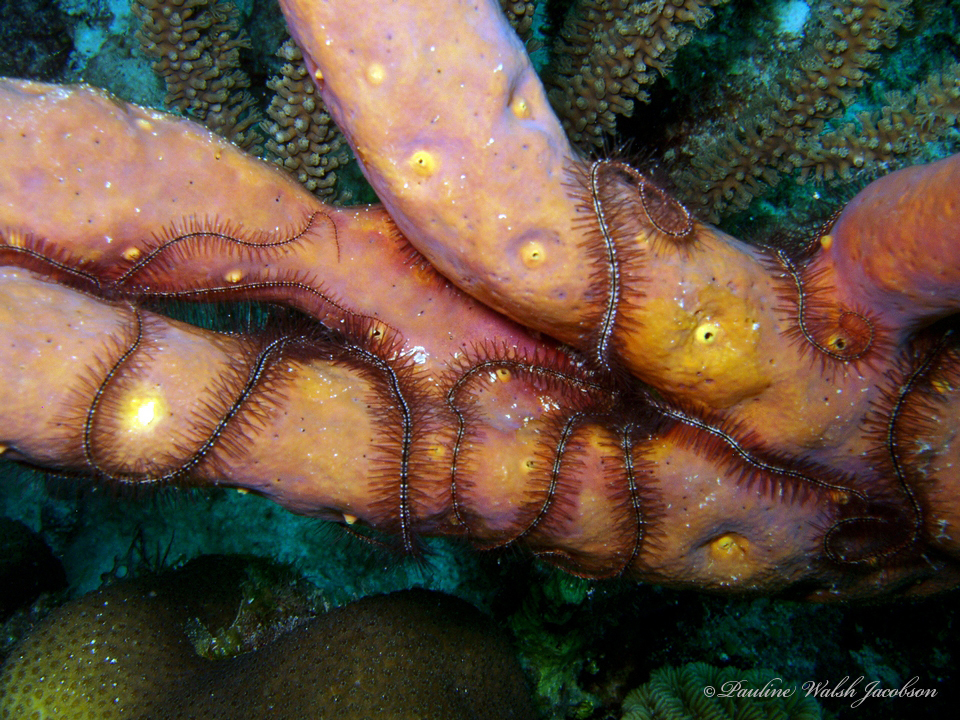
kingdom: Animalia
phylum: Echinodermata
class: Ophiuroidea
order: Amphilepidida
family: Ophiotrichidae
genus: Ophiothrix
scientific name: Ophiothrix suensonii
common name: Sponge brittle star
